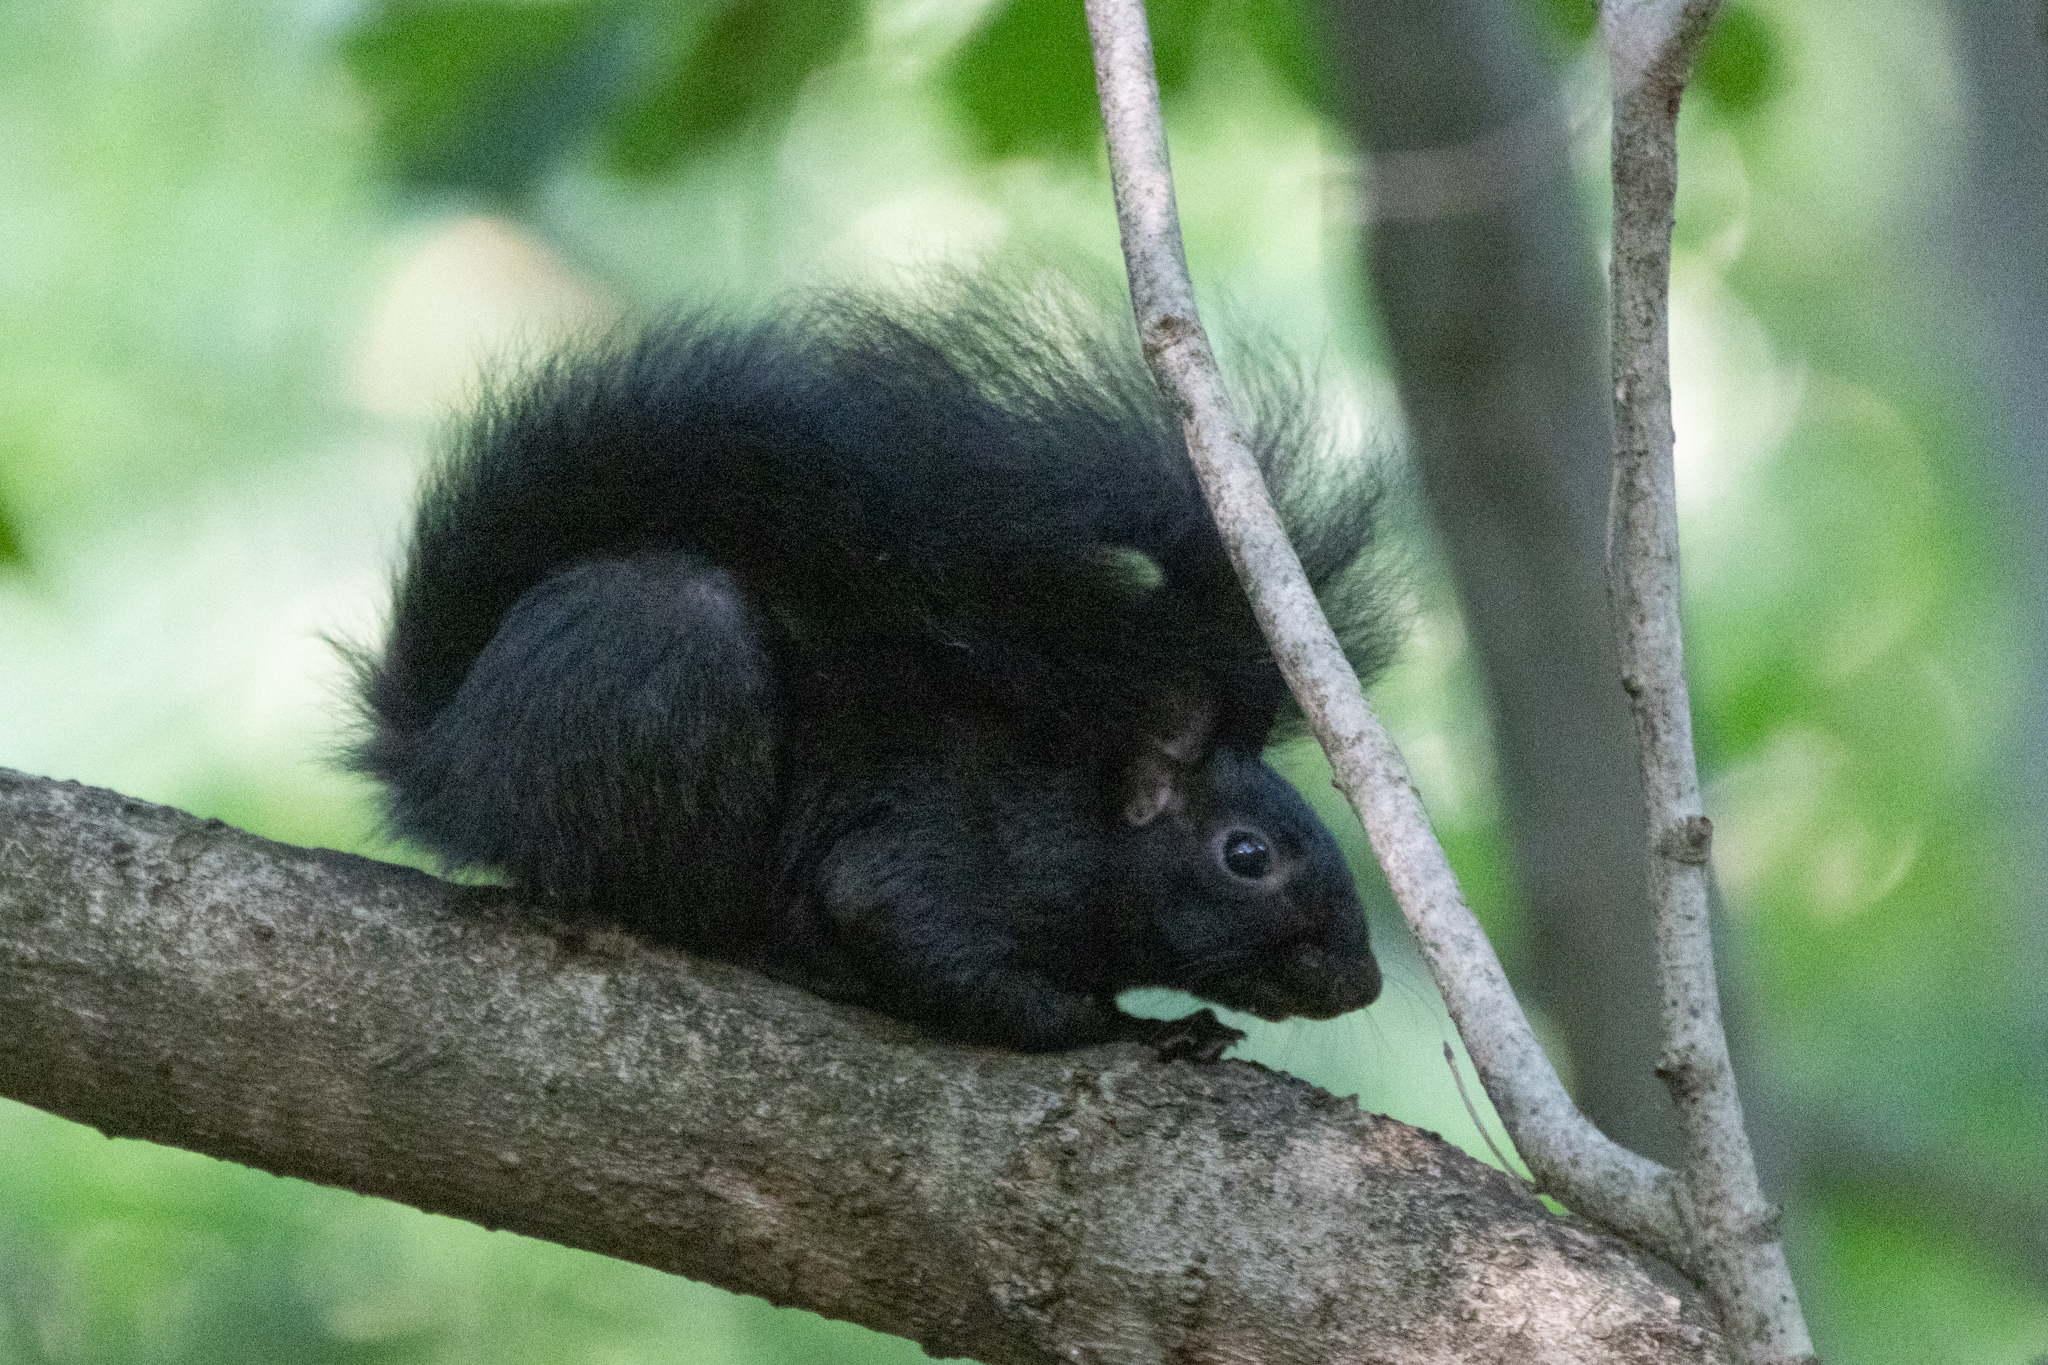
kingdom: Animalia
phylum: Chordata
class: Mammalia
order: Rodentia
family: Sciuridae
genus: Sciurus
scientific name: Sciurus carolinensis
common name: Eastern gray squirrel
